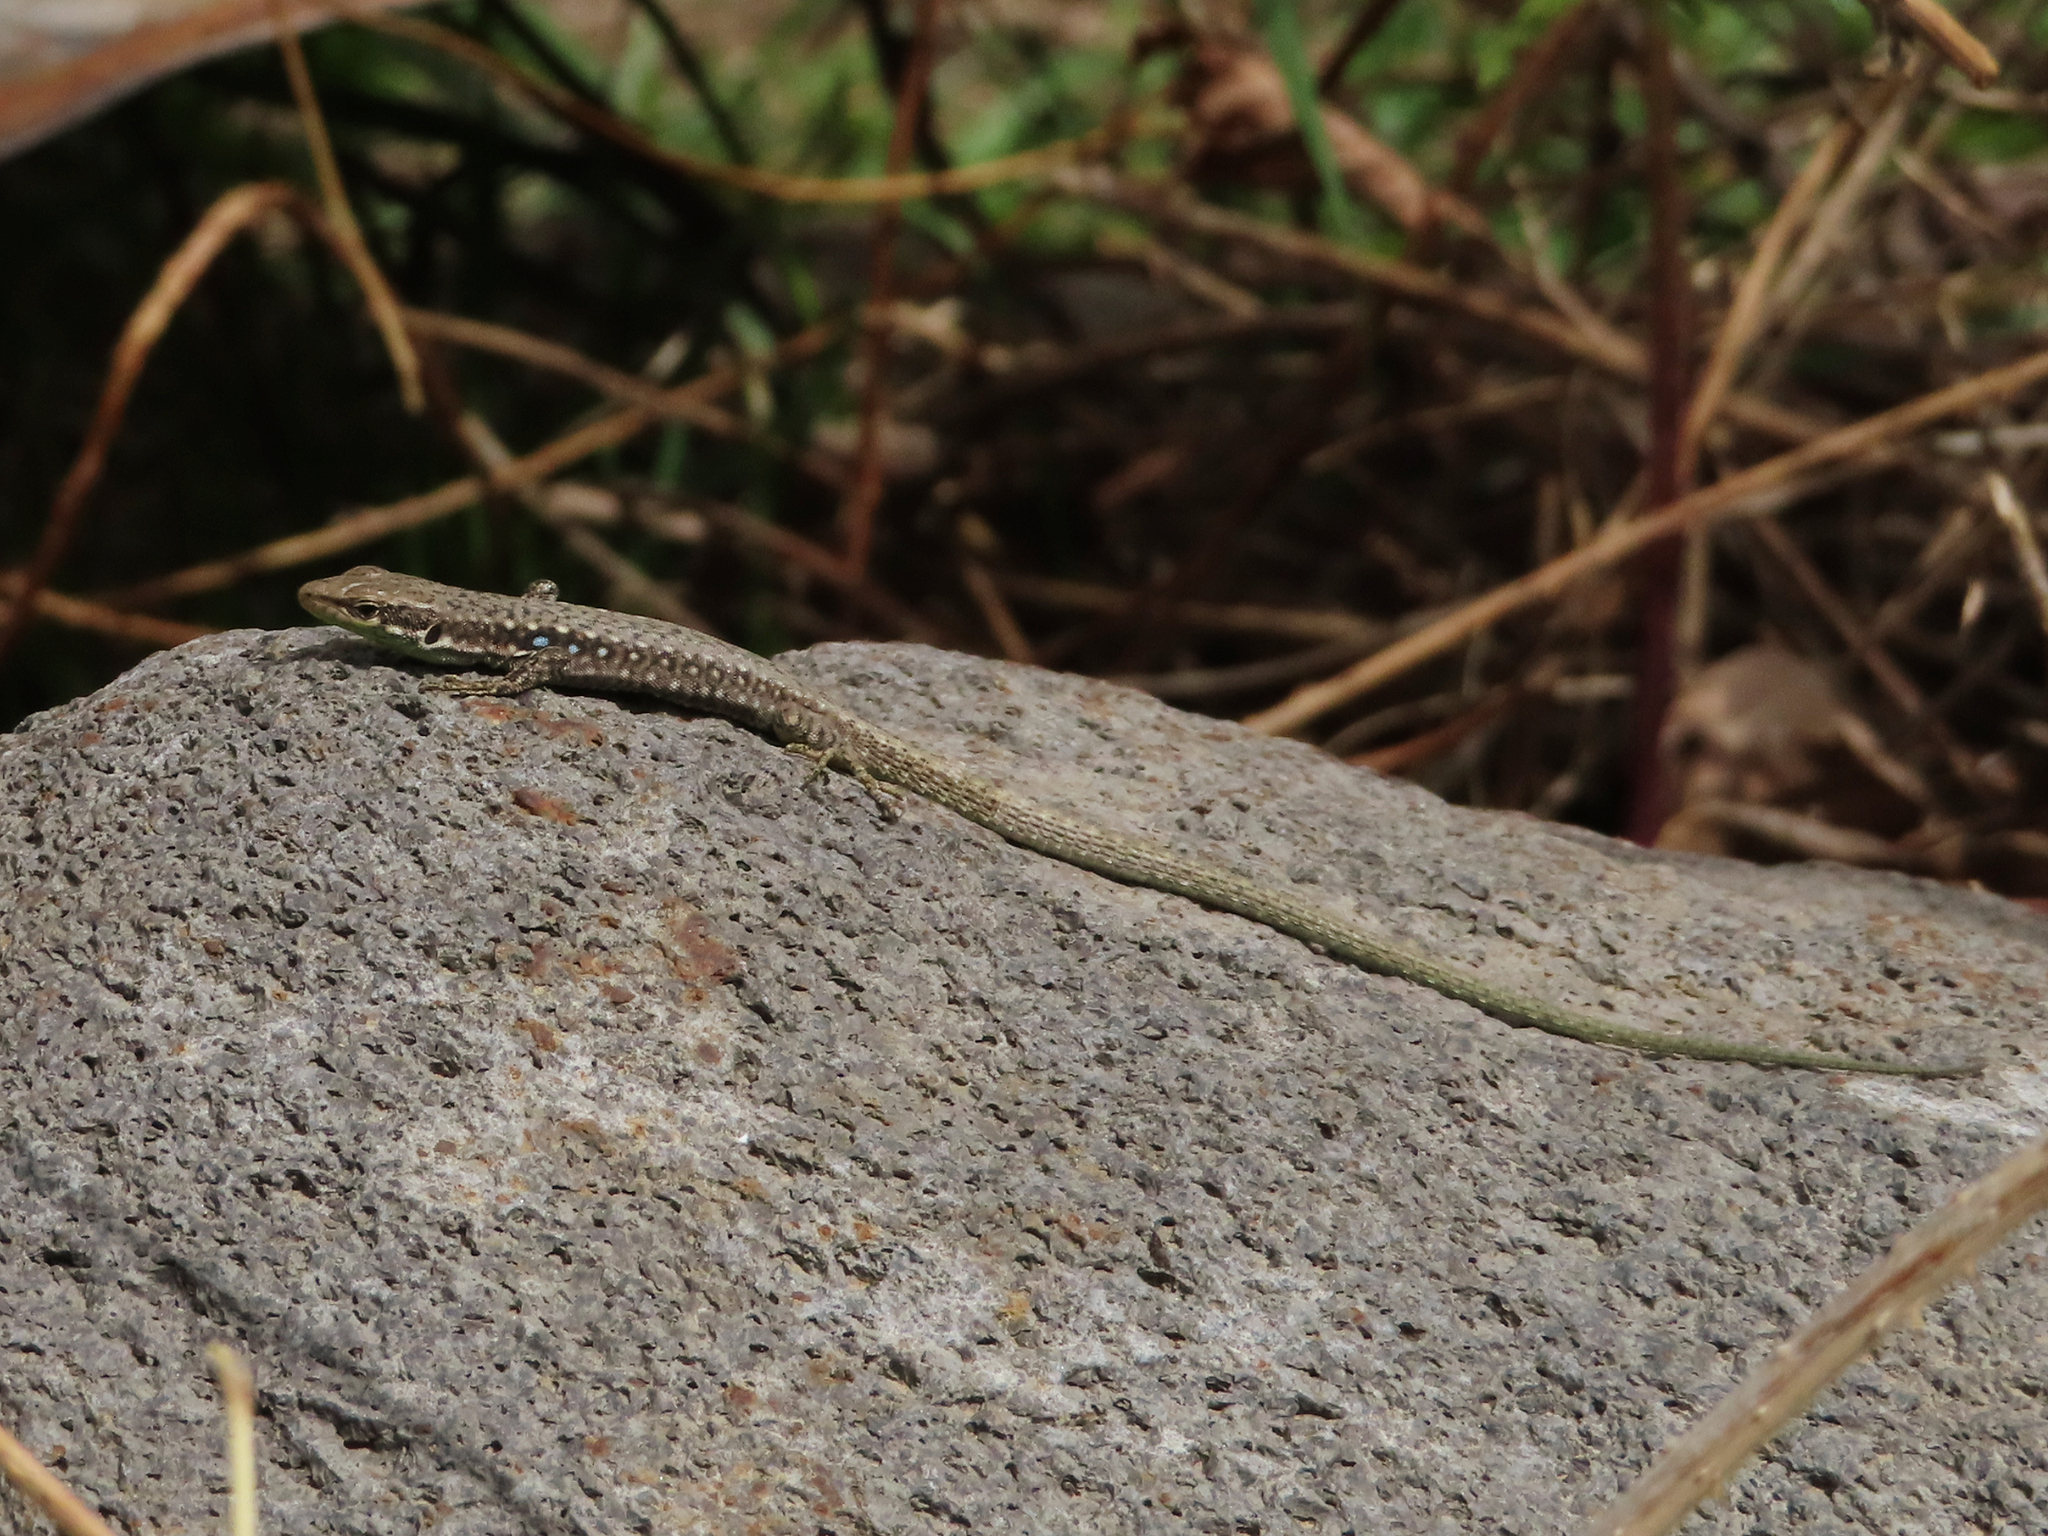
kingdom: Animalia
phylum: Chordata
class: Squamata
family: Lacertidae
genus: Darevskia
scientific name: Darevskia raddei
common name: Radde's lizard
